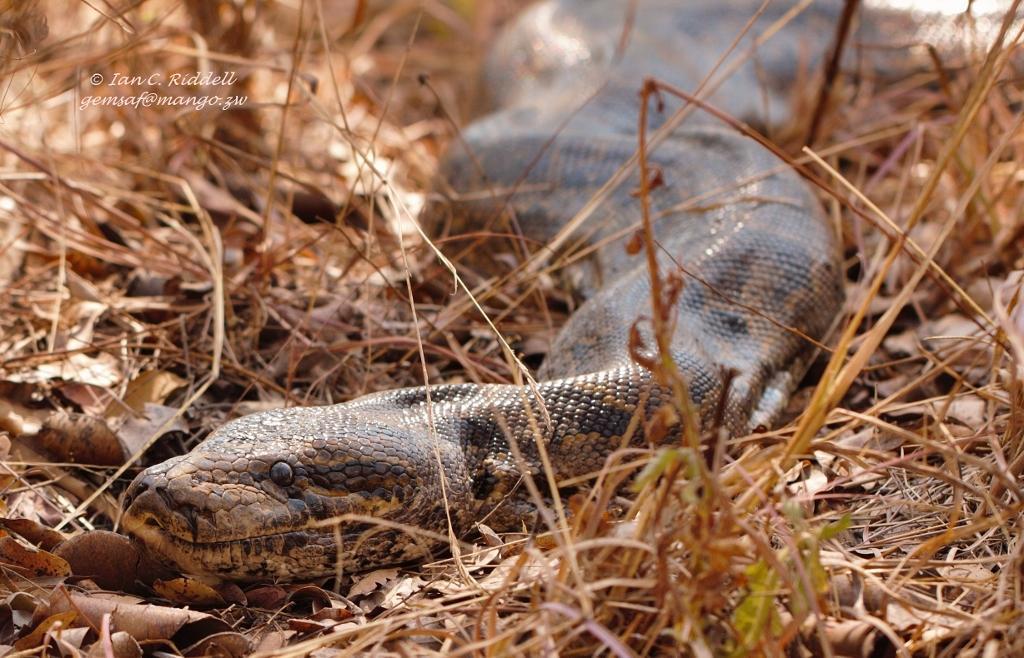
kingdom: Animalia
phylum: Chordata
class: Squamata
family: Pythonidae
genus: Python
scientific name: Python natalensis
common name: Southern african rock python
